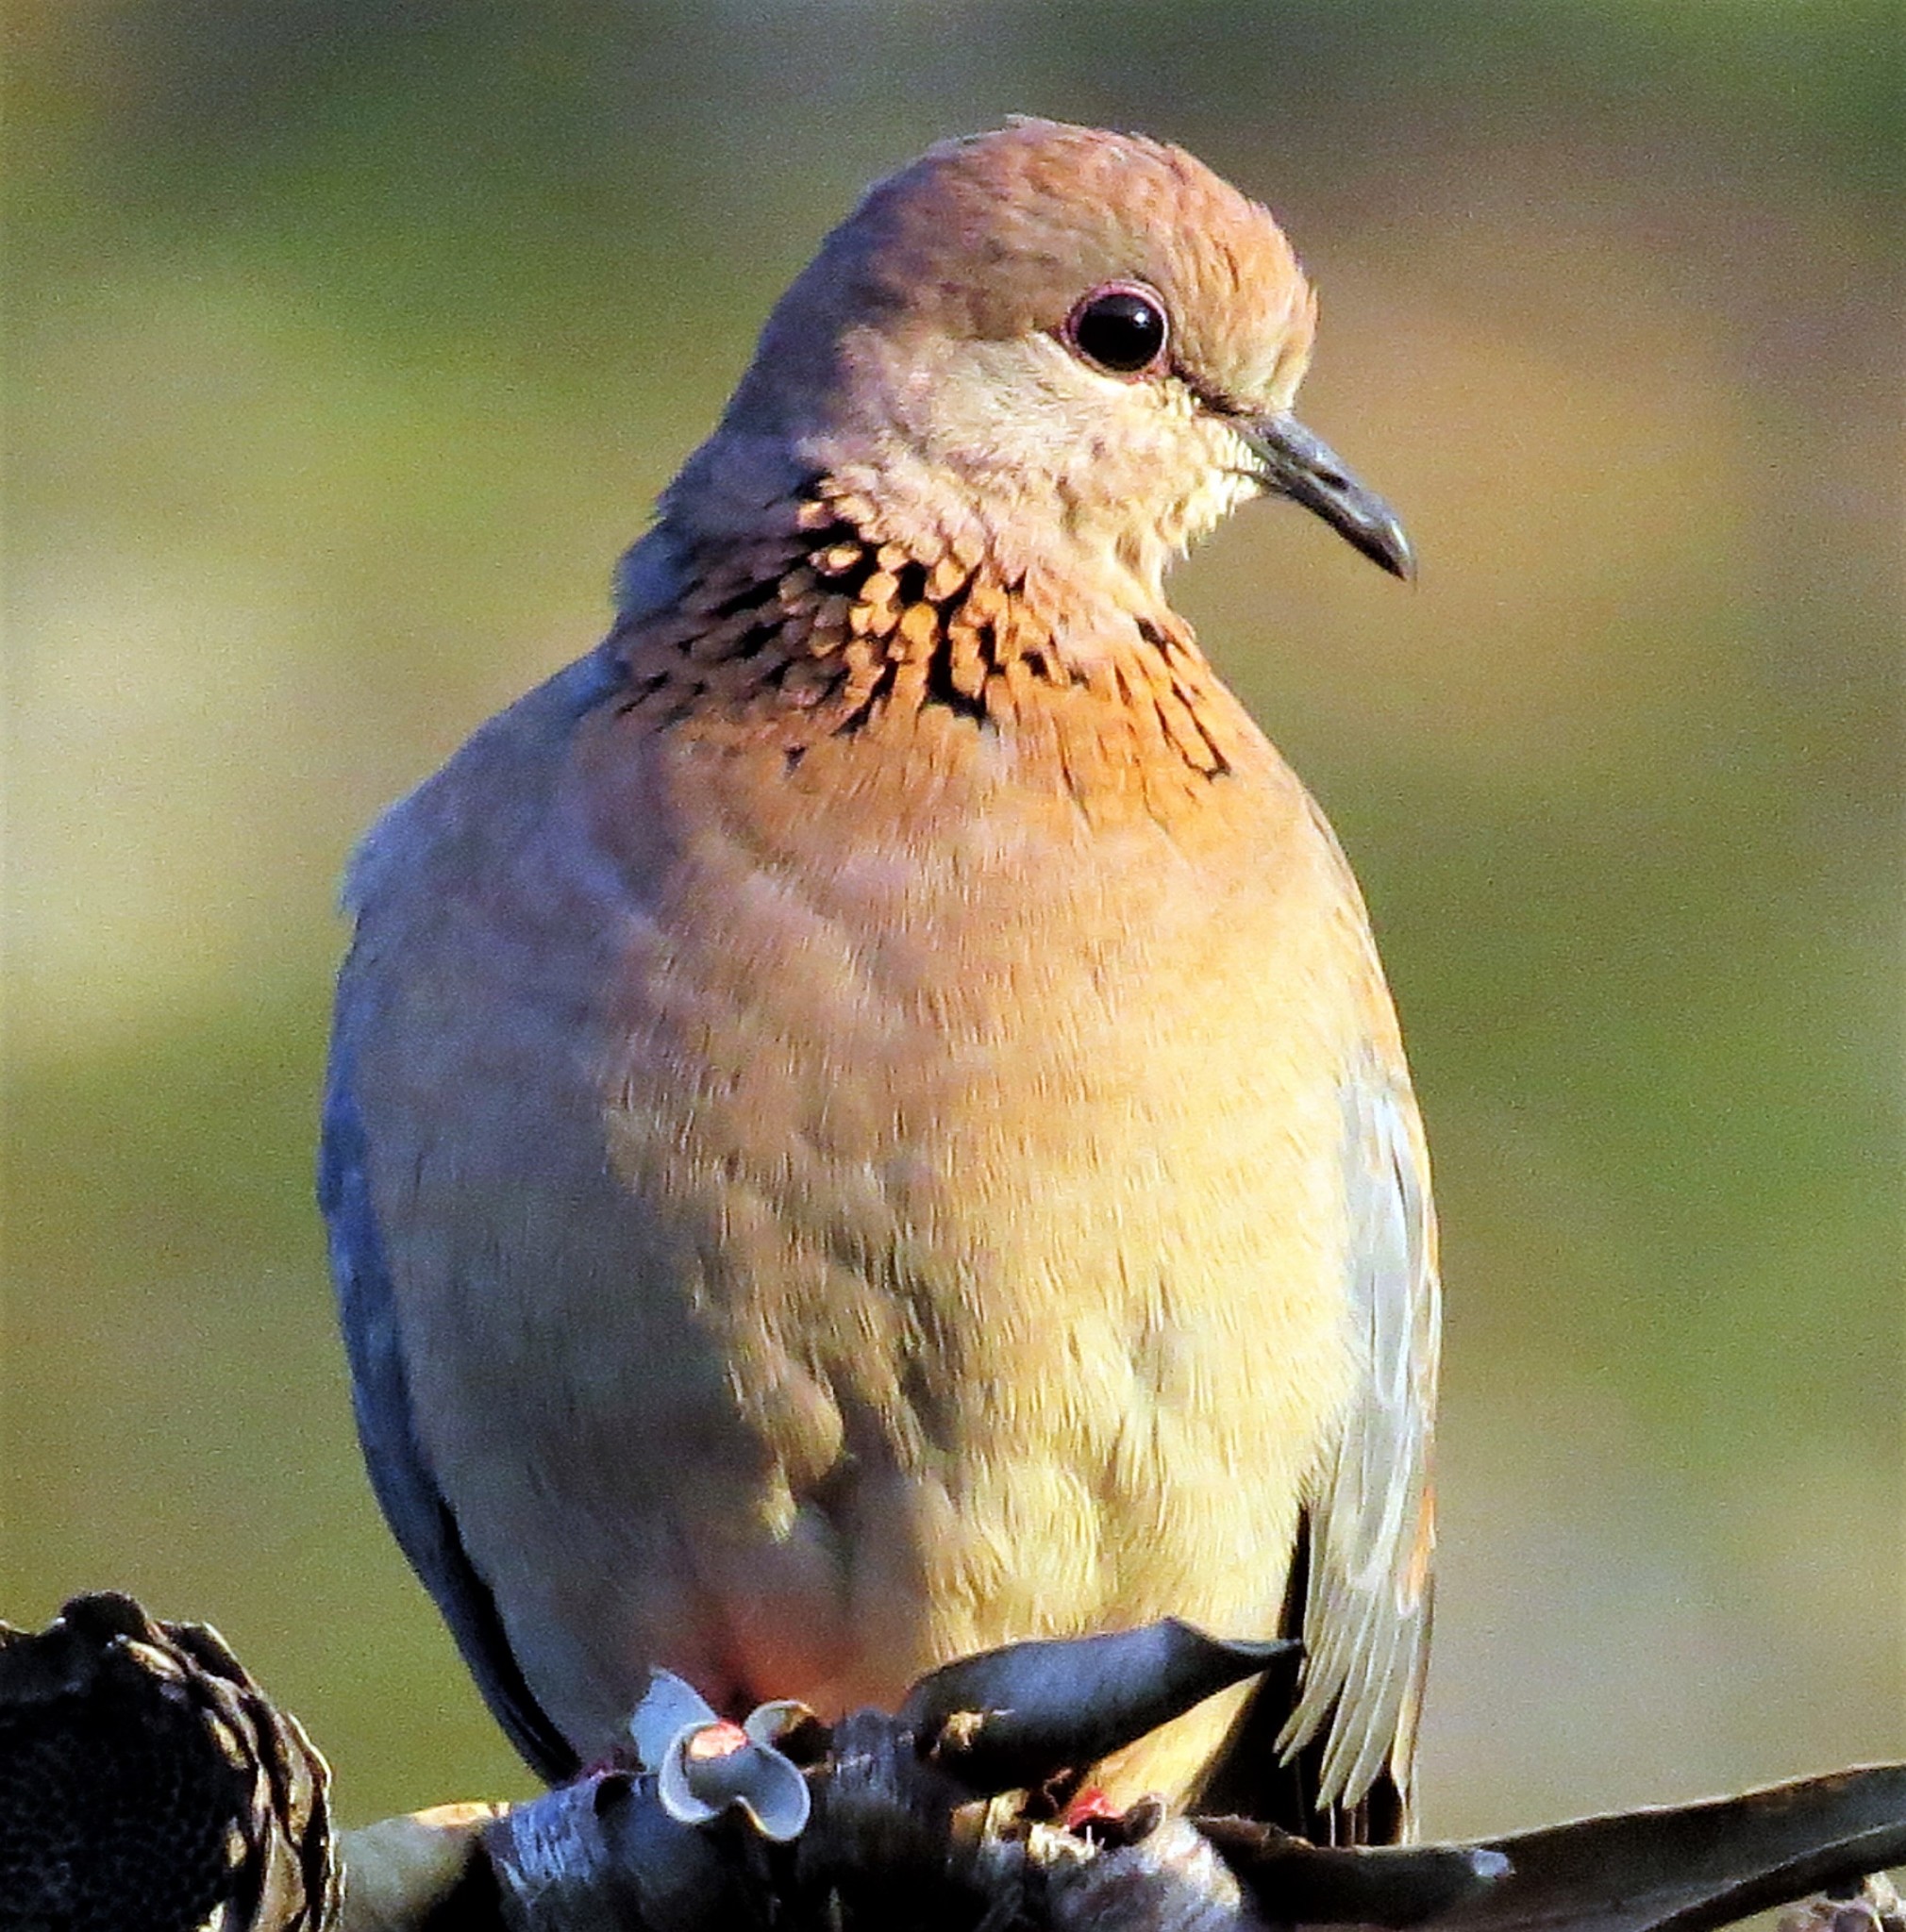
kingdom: Animalia
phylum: Chordata
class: Aves
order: Columbiformes
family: Columbidae
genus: Spilopelia
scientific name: Spilopelia senegalensis
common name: Laughing dove
